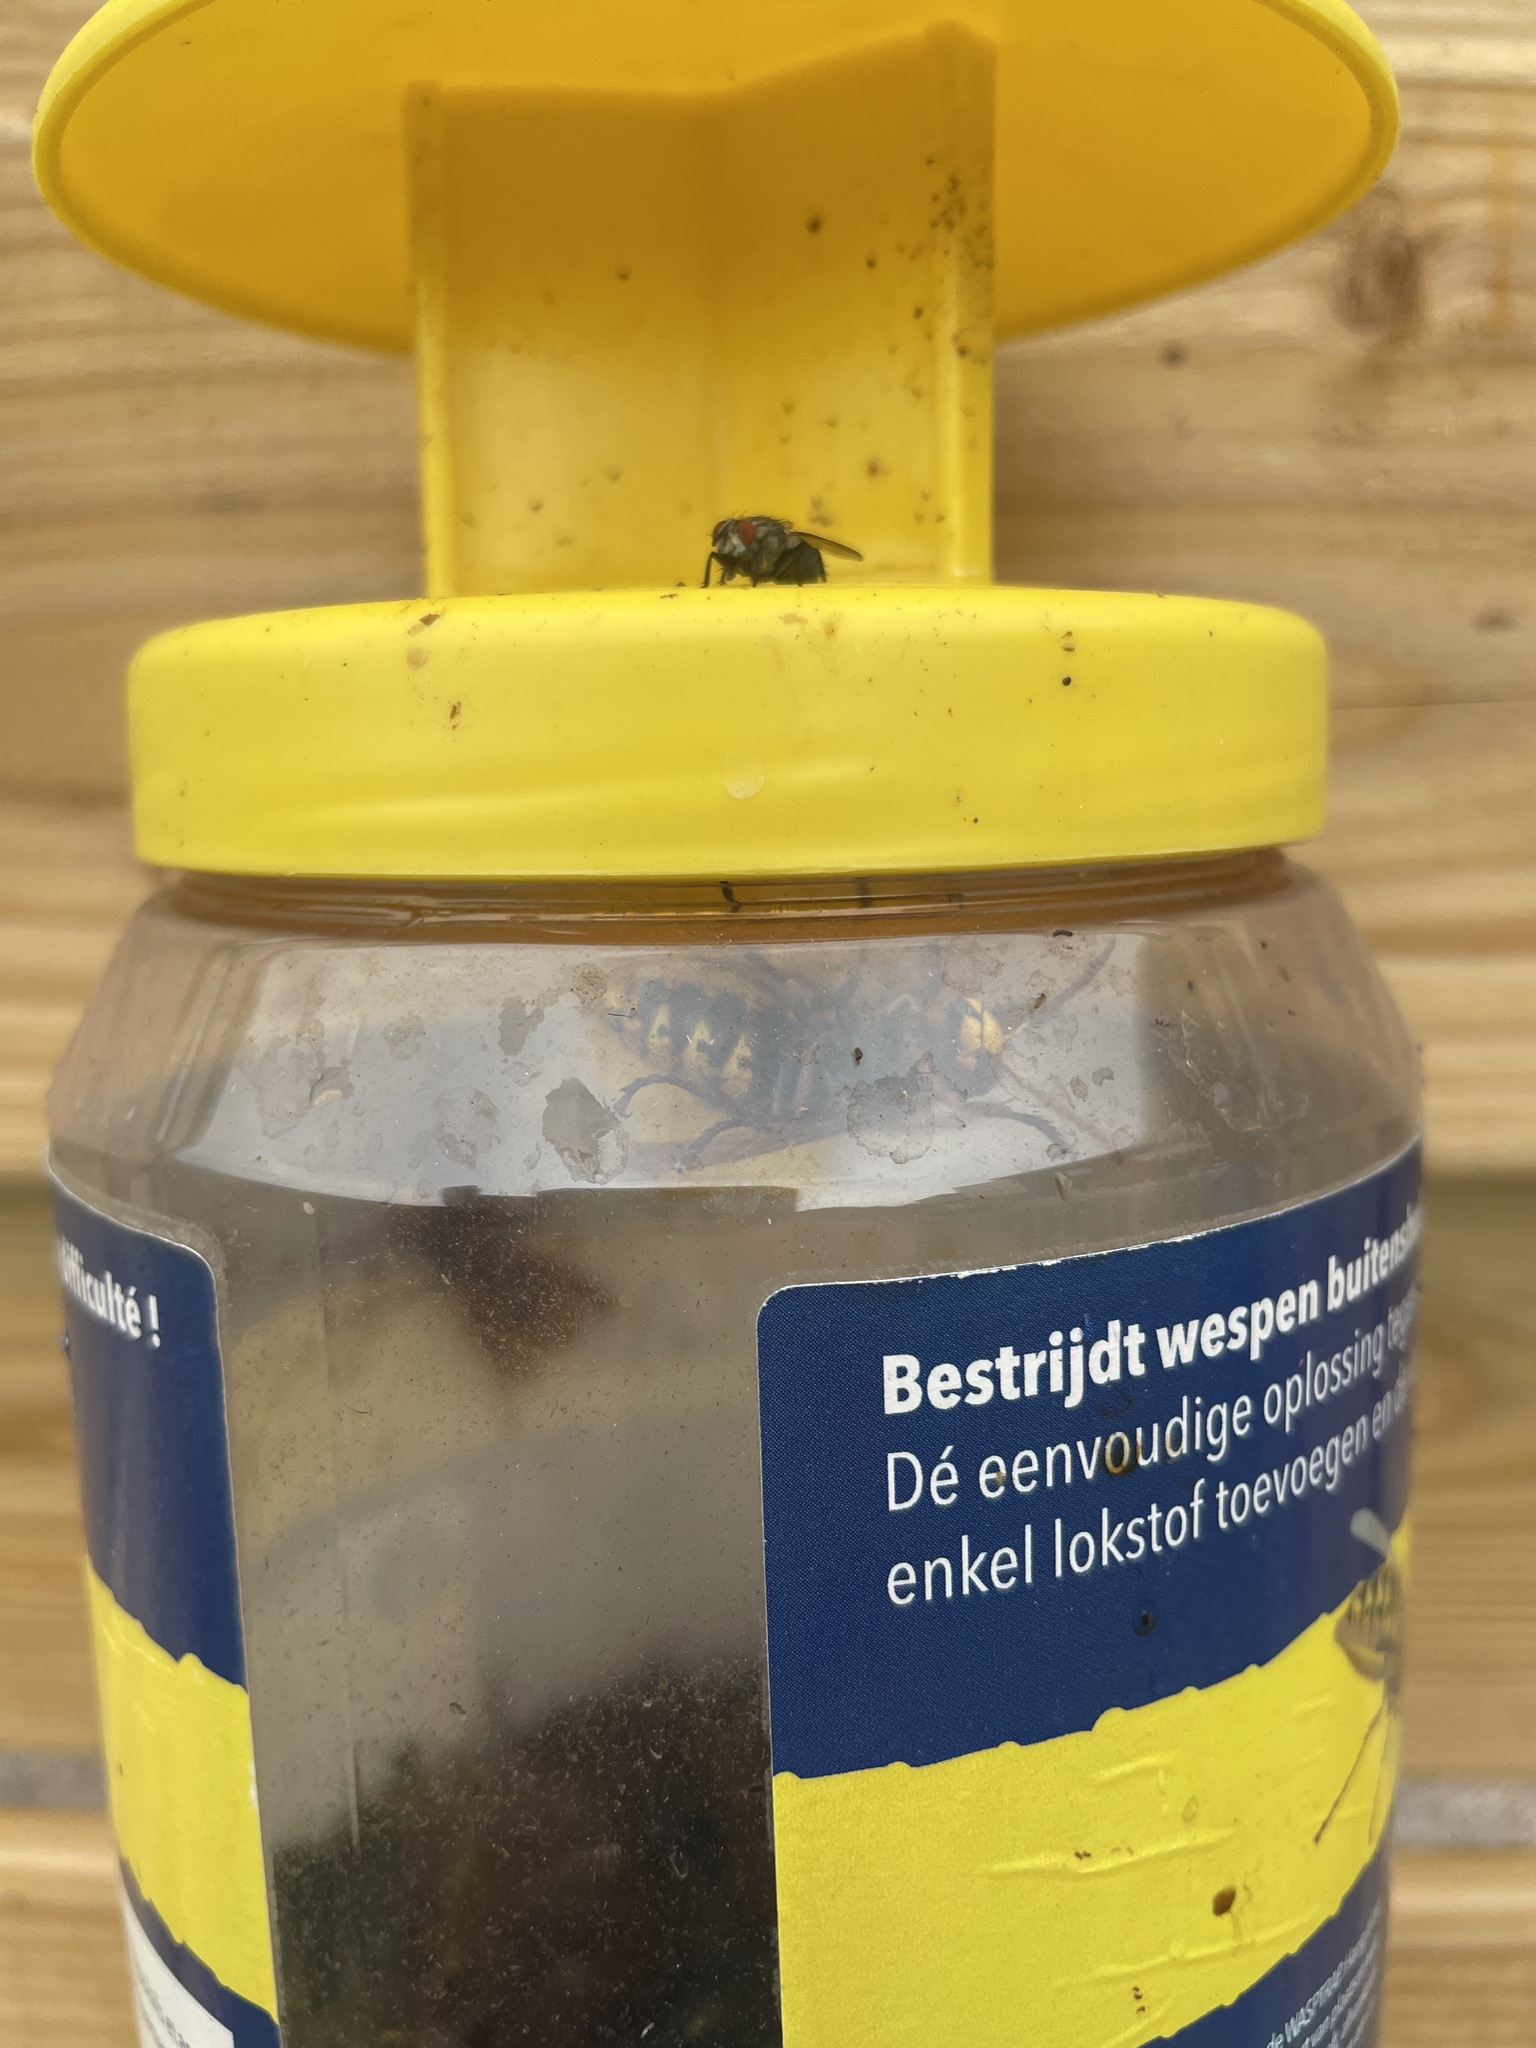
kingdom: Animalia
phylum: Arthropoda
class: Insecta
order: Hymenoptera
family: Vespidae
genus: Vespa
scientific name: Vespa crabro
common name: Hornet
